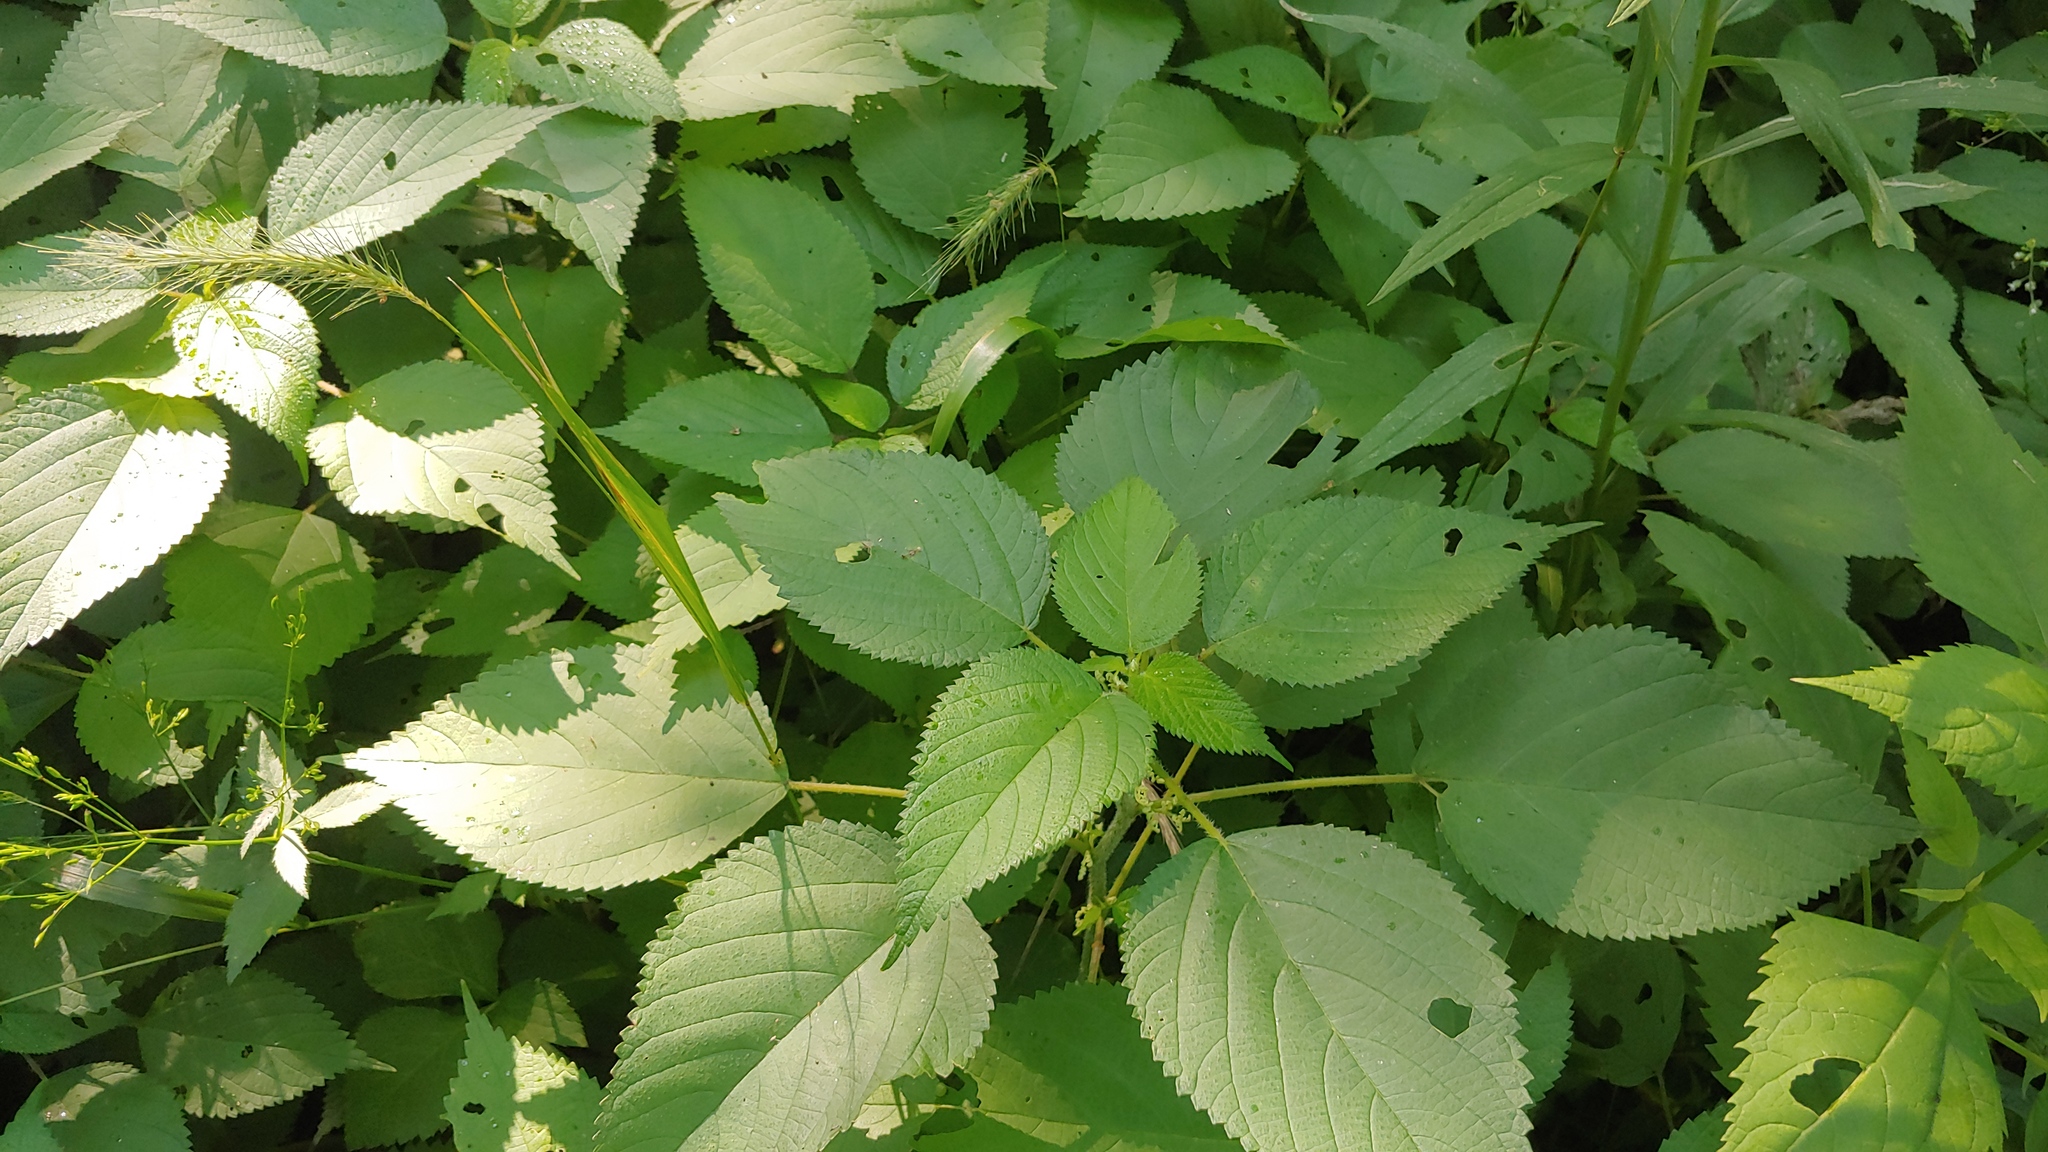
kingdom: Plantae
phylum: Tracheophyta
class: Magnoliopsida
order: Rosales
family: Urticaceae
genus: Laportea
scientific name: Laportea canadensis
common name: Canada nettle
